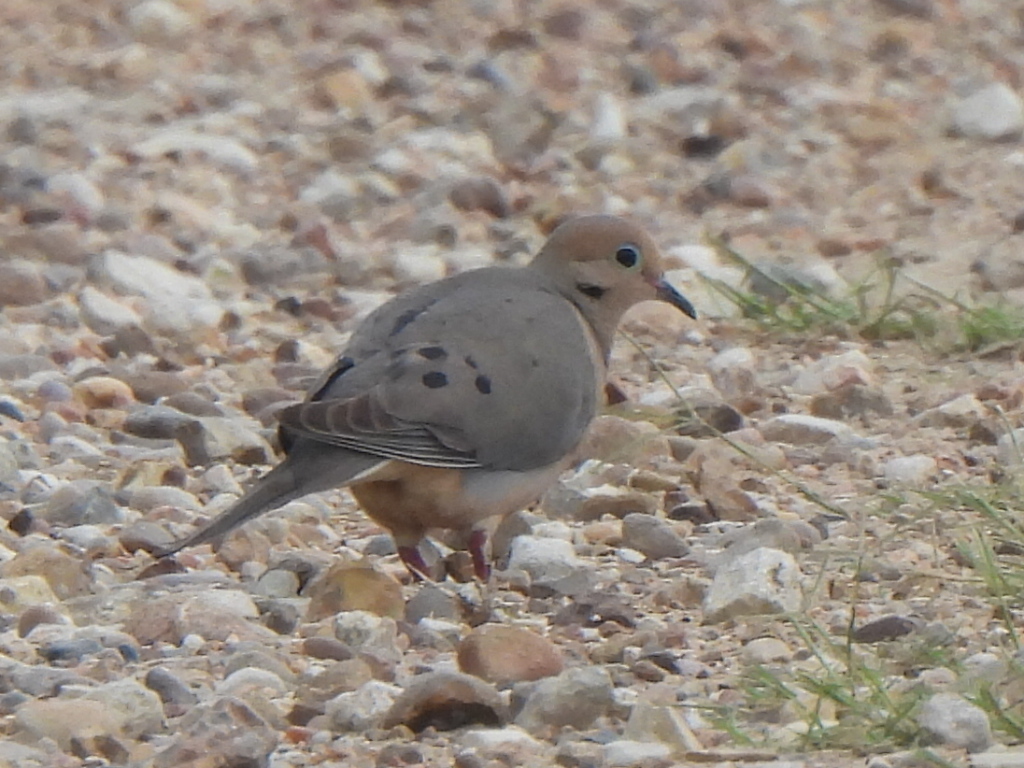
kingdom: Animalia
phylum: Chordata
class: Aves
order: Columbiformes
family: Columbidae
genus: Zenaida
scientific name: Zenaida macroura
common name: Mourning dove
